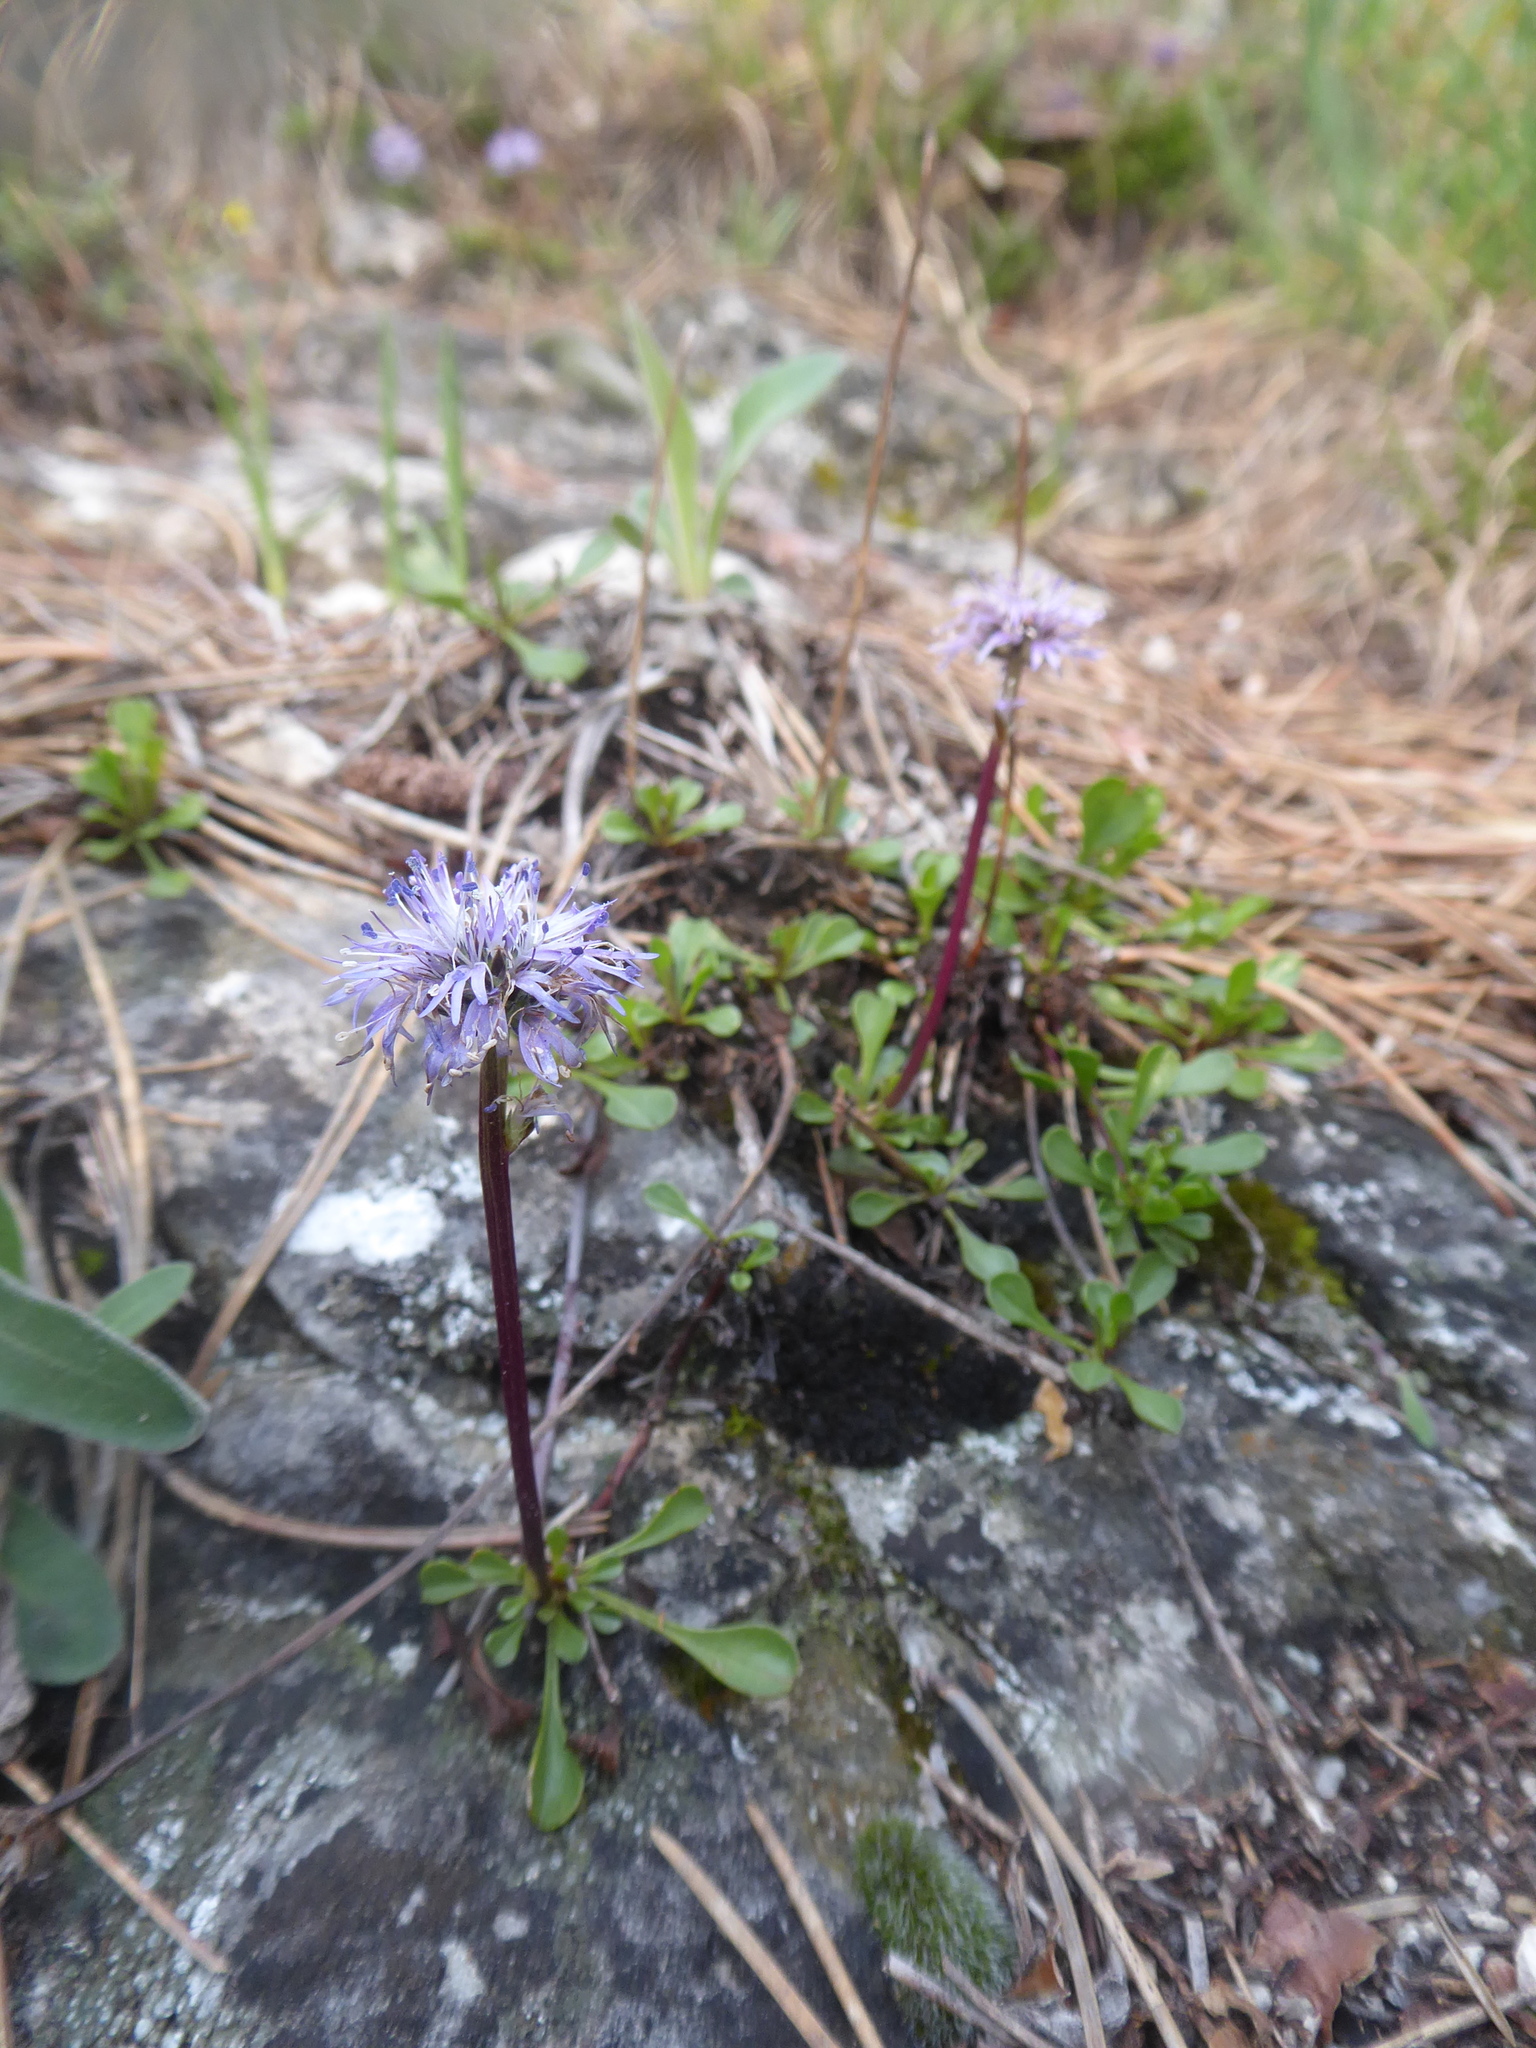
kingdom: Plantae
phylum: Tracheophyta
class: Magnoliopsida
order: Lamiales
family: Plantaginaceae
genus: Globularia
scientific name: Globularia cordifolia
